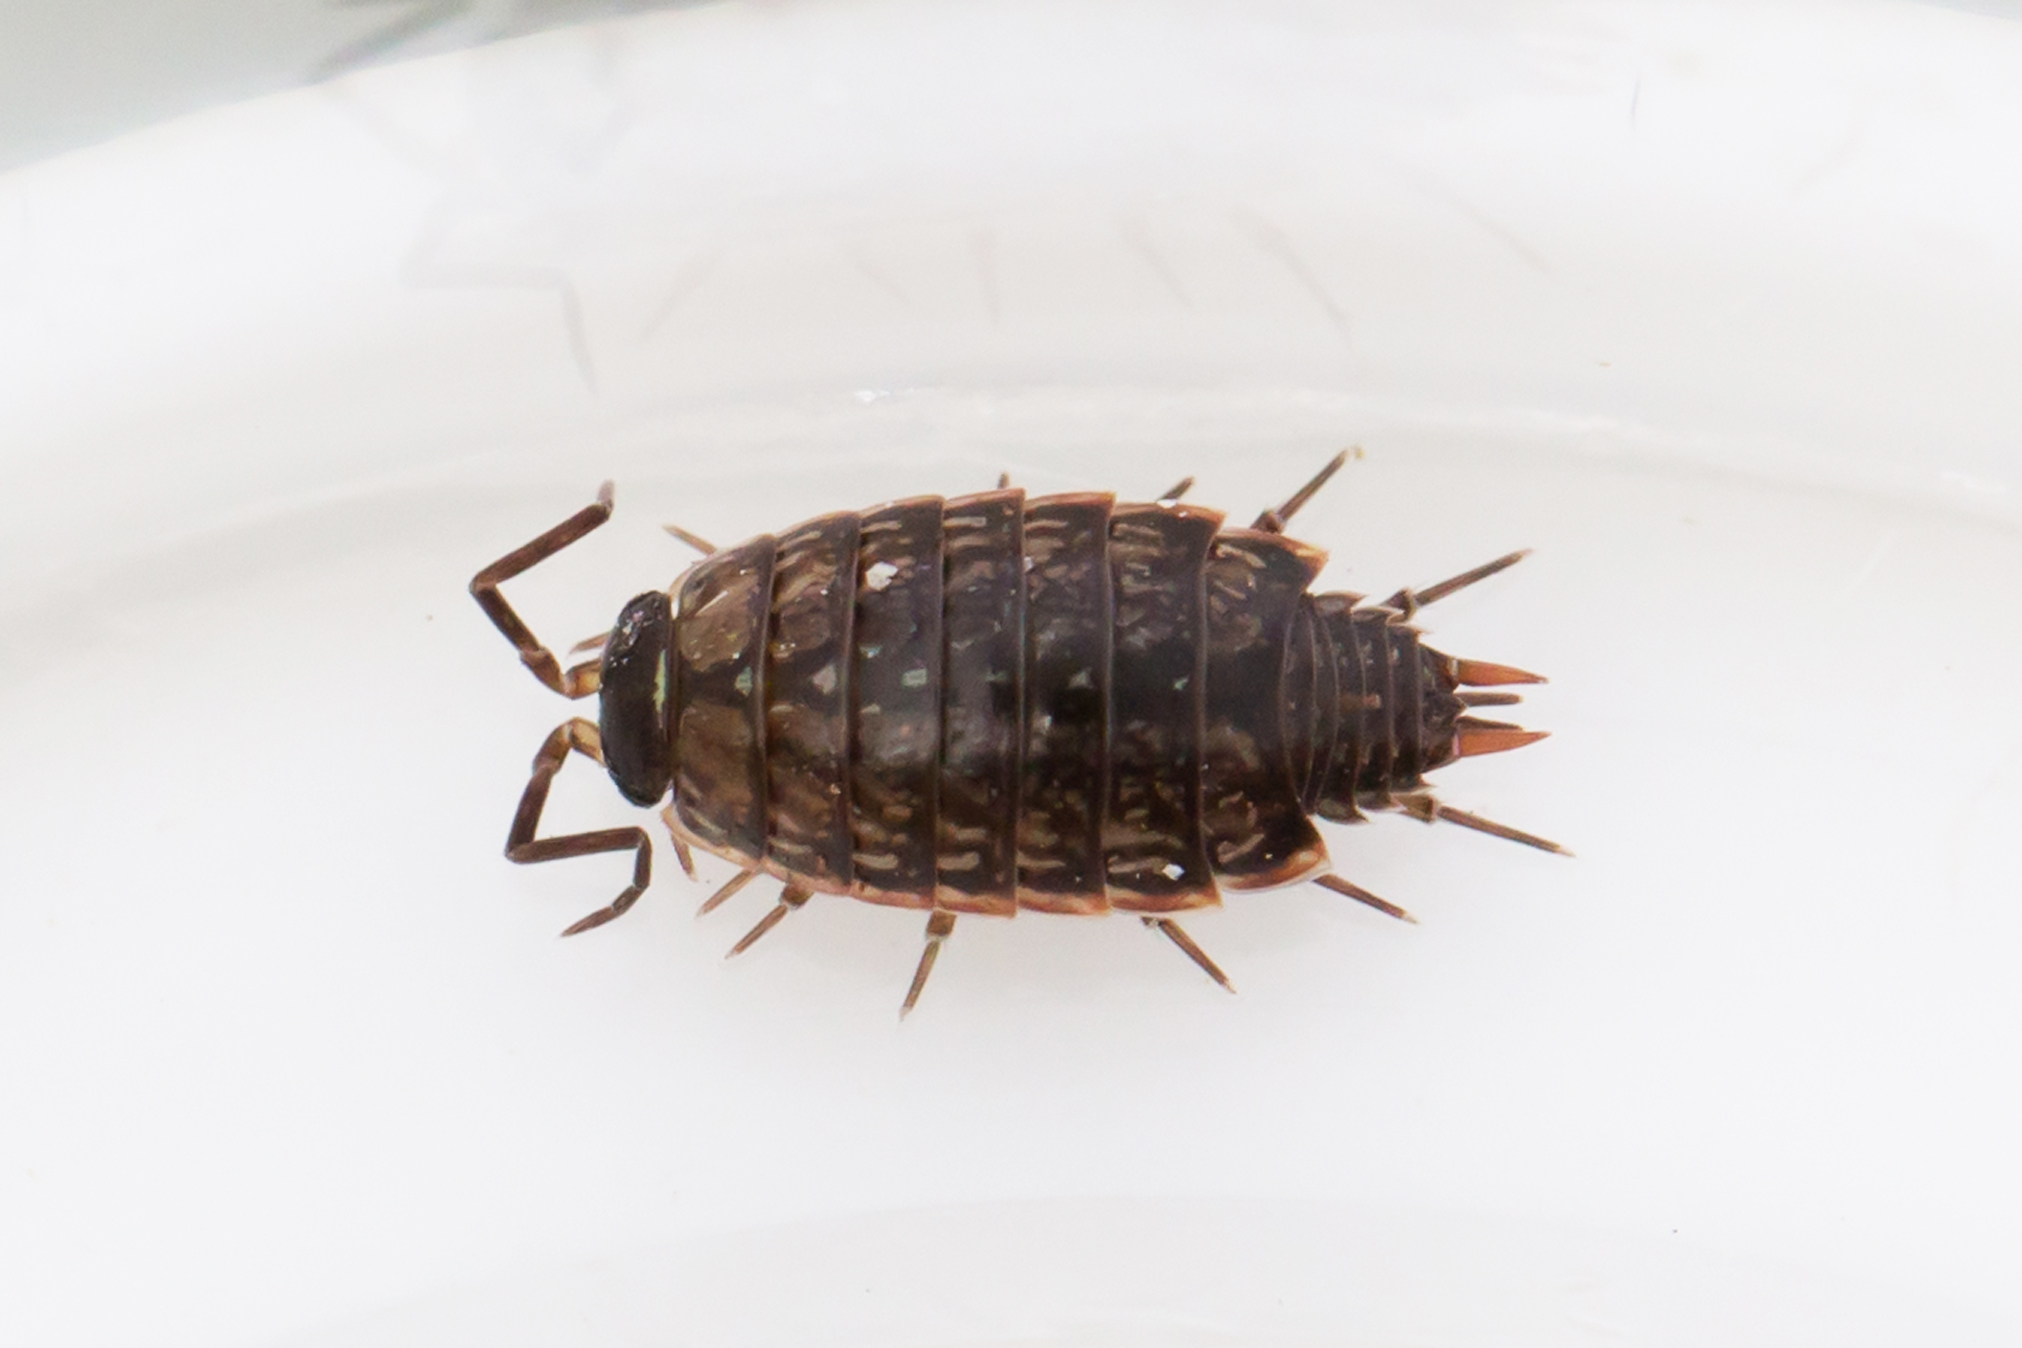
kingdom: Animalia
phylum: Arthropoda
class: Malacostraca
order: Isopoda
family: Philosciidae
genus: Philoscia
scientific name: Philoscia muscorum
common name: Common striped woodlouse
